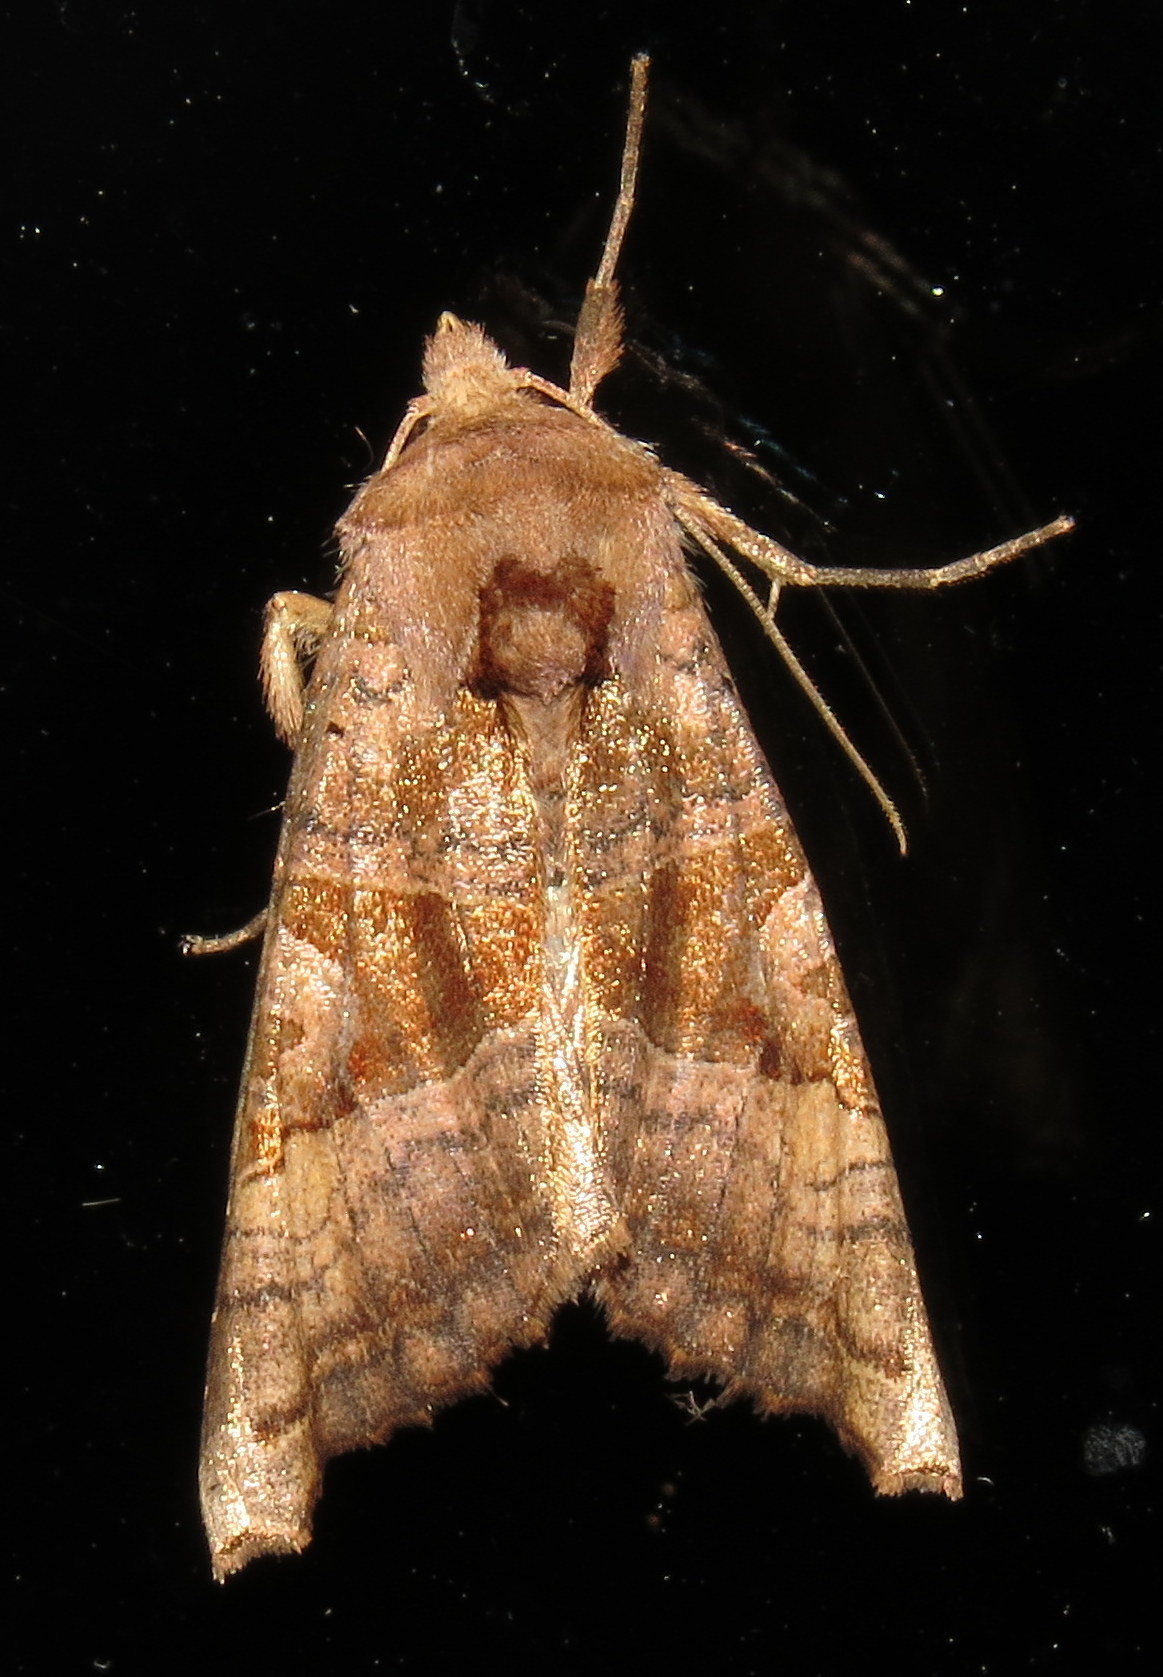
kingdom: Animalia
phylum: Arthropoda
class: Insecta
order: Lepidoptera
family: Noctuidae
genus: Phlogophora
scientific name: Phlogophora periculosa
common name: Brown angle shades
